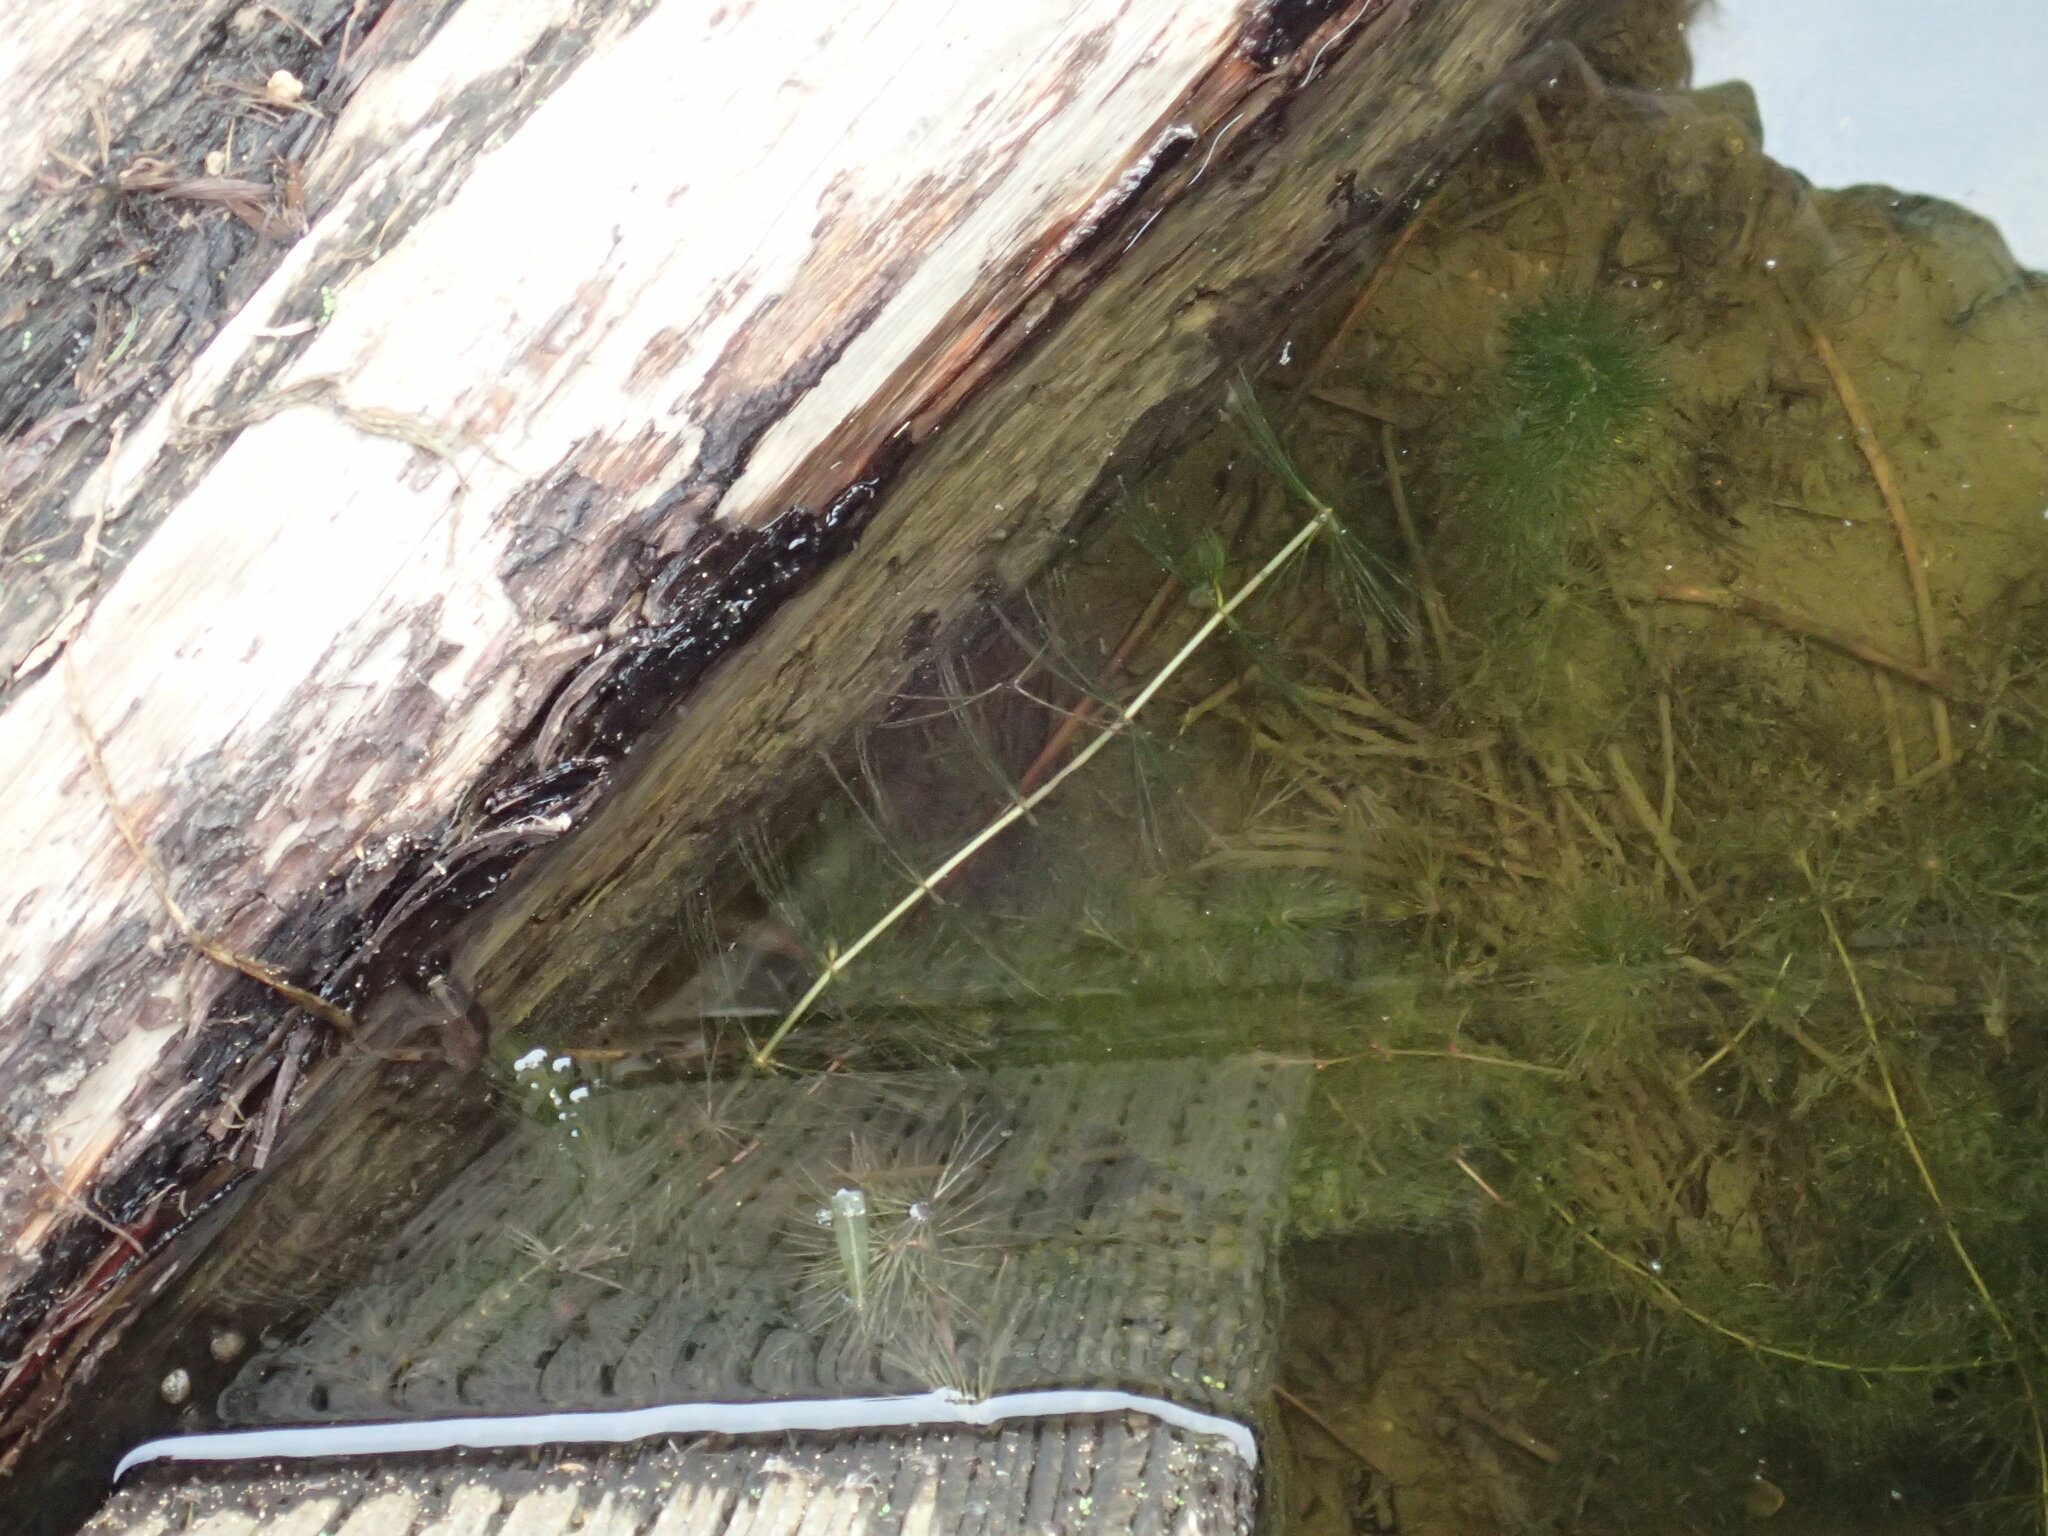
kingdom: Plantae
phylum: Tracheophyta
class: Magnoliopsida
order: Ceratophyllales
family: Ceratophyllaceae
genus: Ceratophyllum
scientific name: Ceratophyllum demersum
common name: Rigid hornwort
